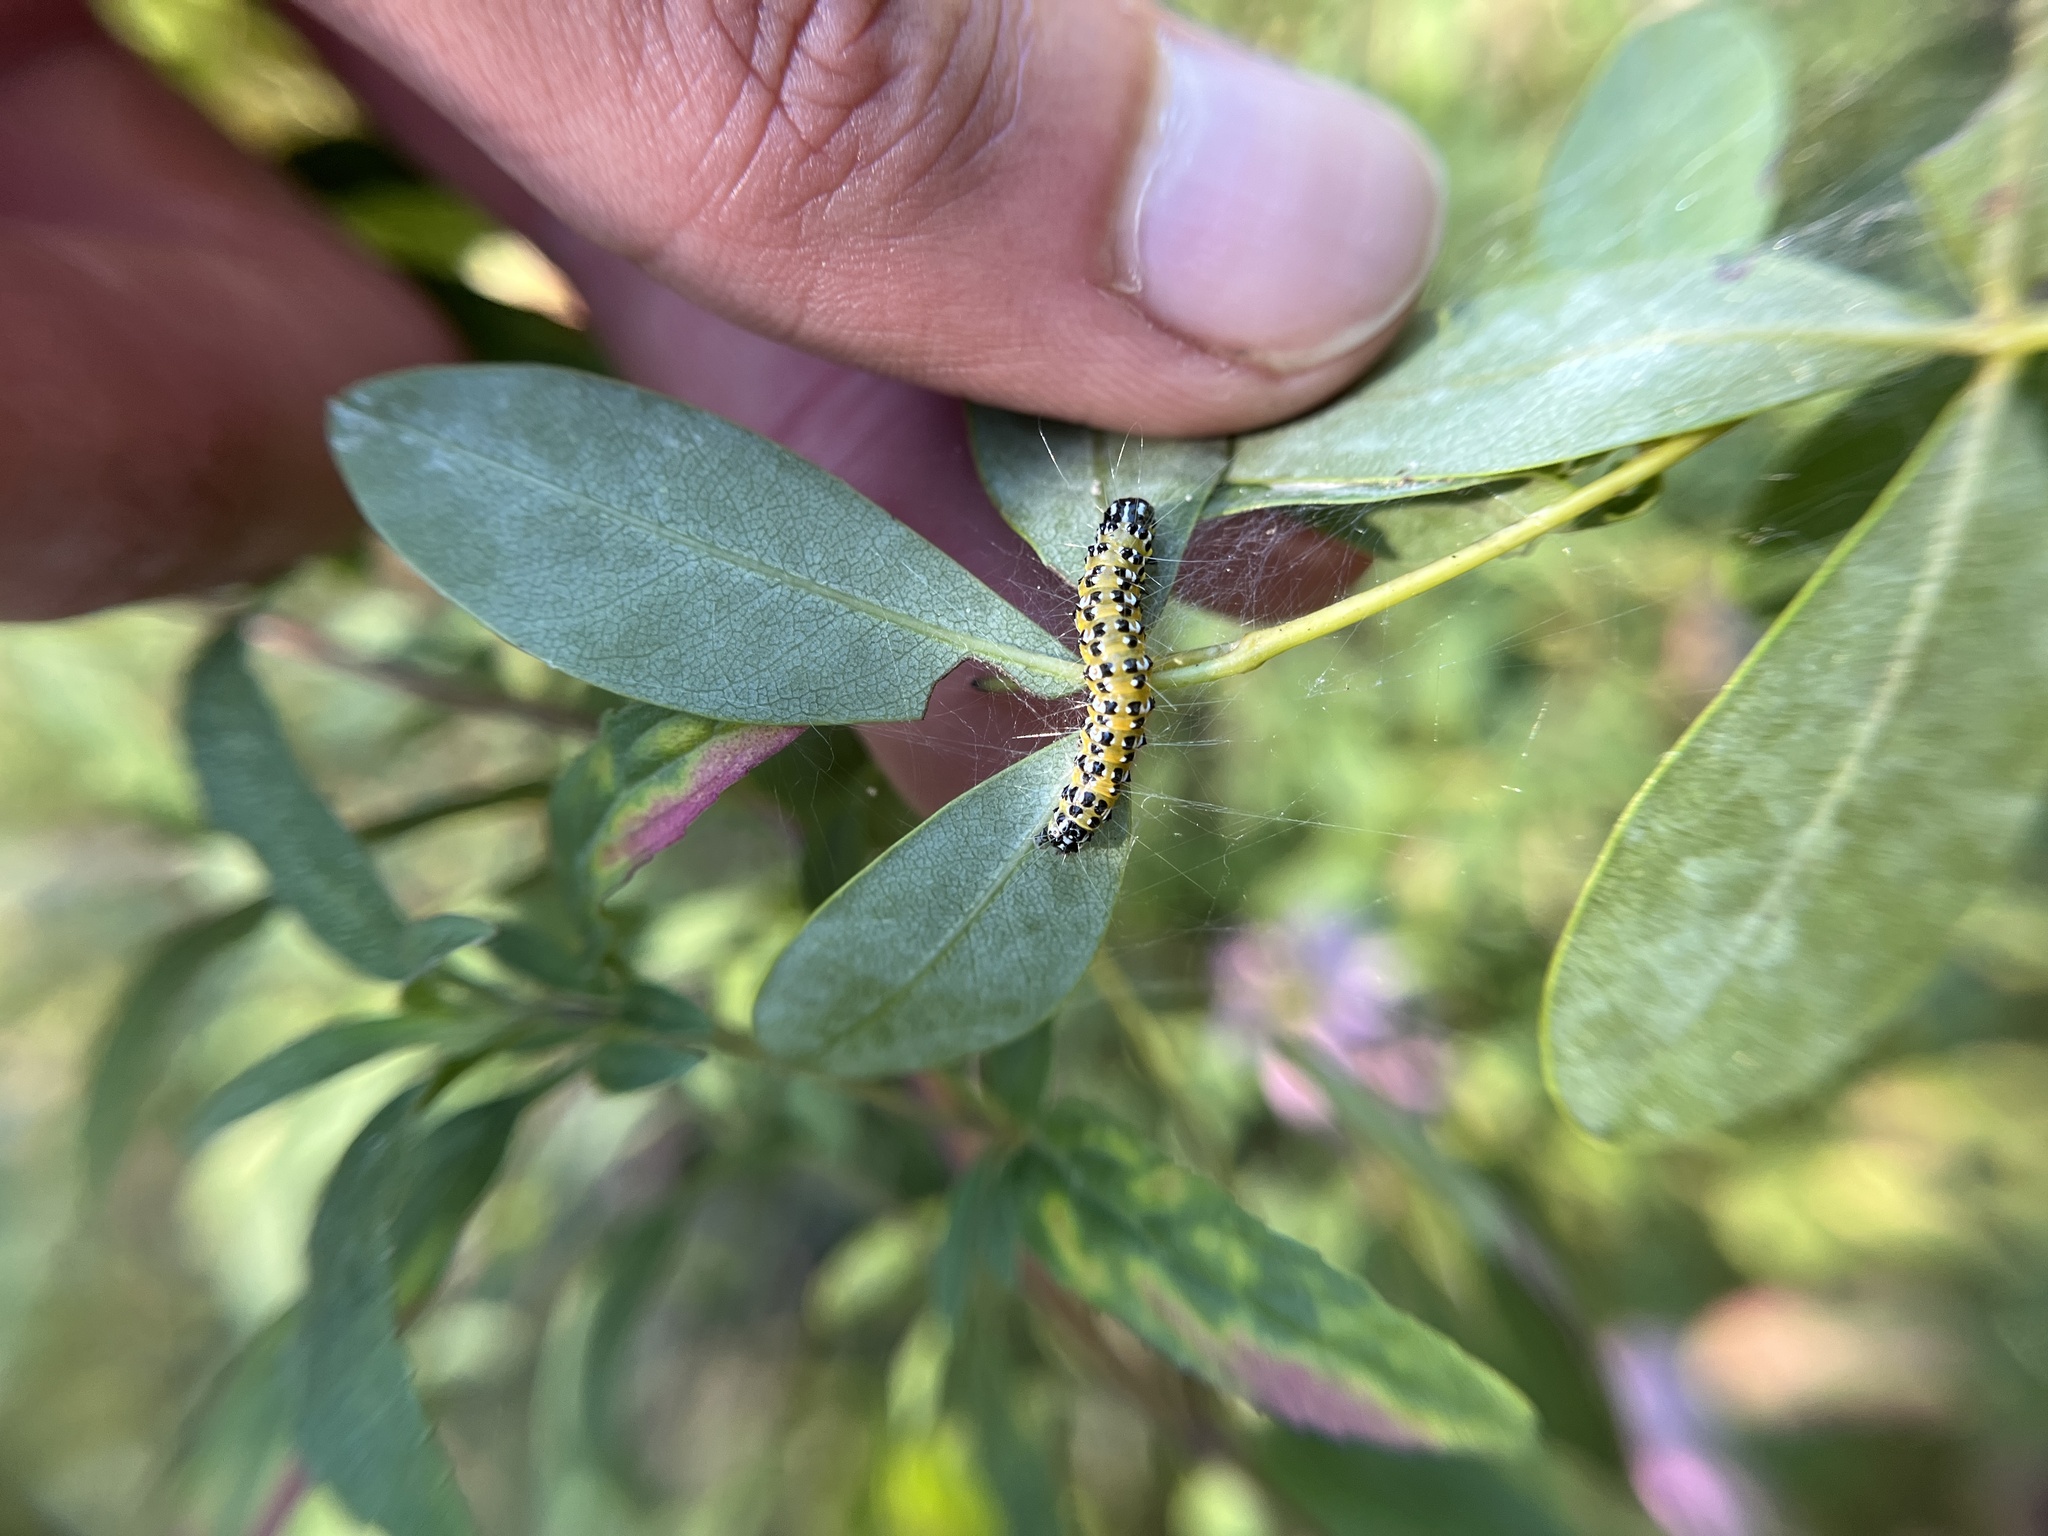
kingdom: Animalia
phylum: Arthropoda
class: Insecta
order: Lepidoptera
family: Crambidae
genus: Uresiphita
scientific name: Uresiphita reversalis
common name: Genista broom moth
